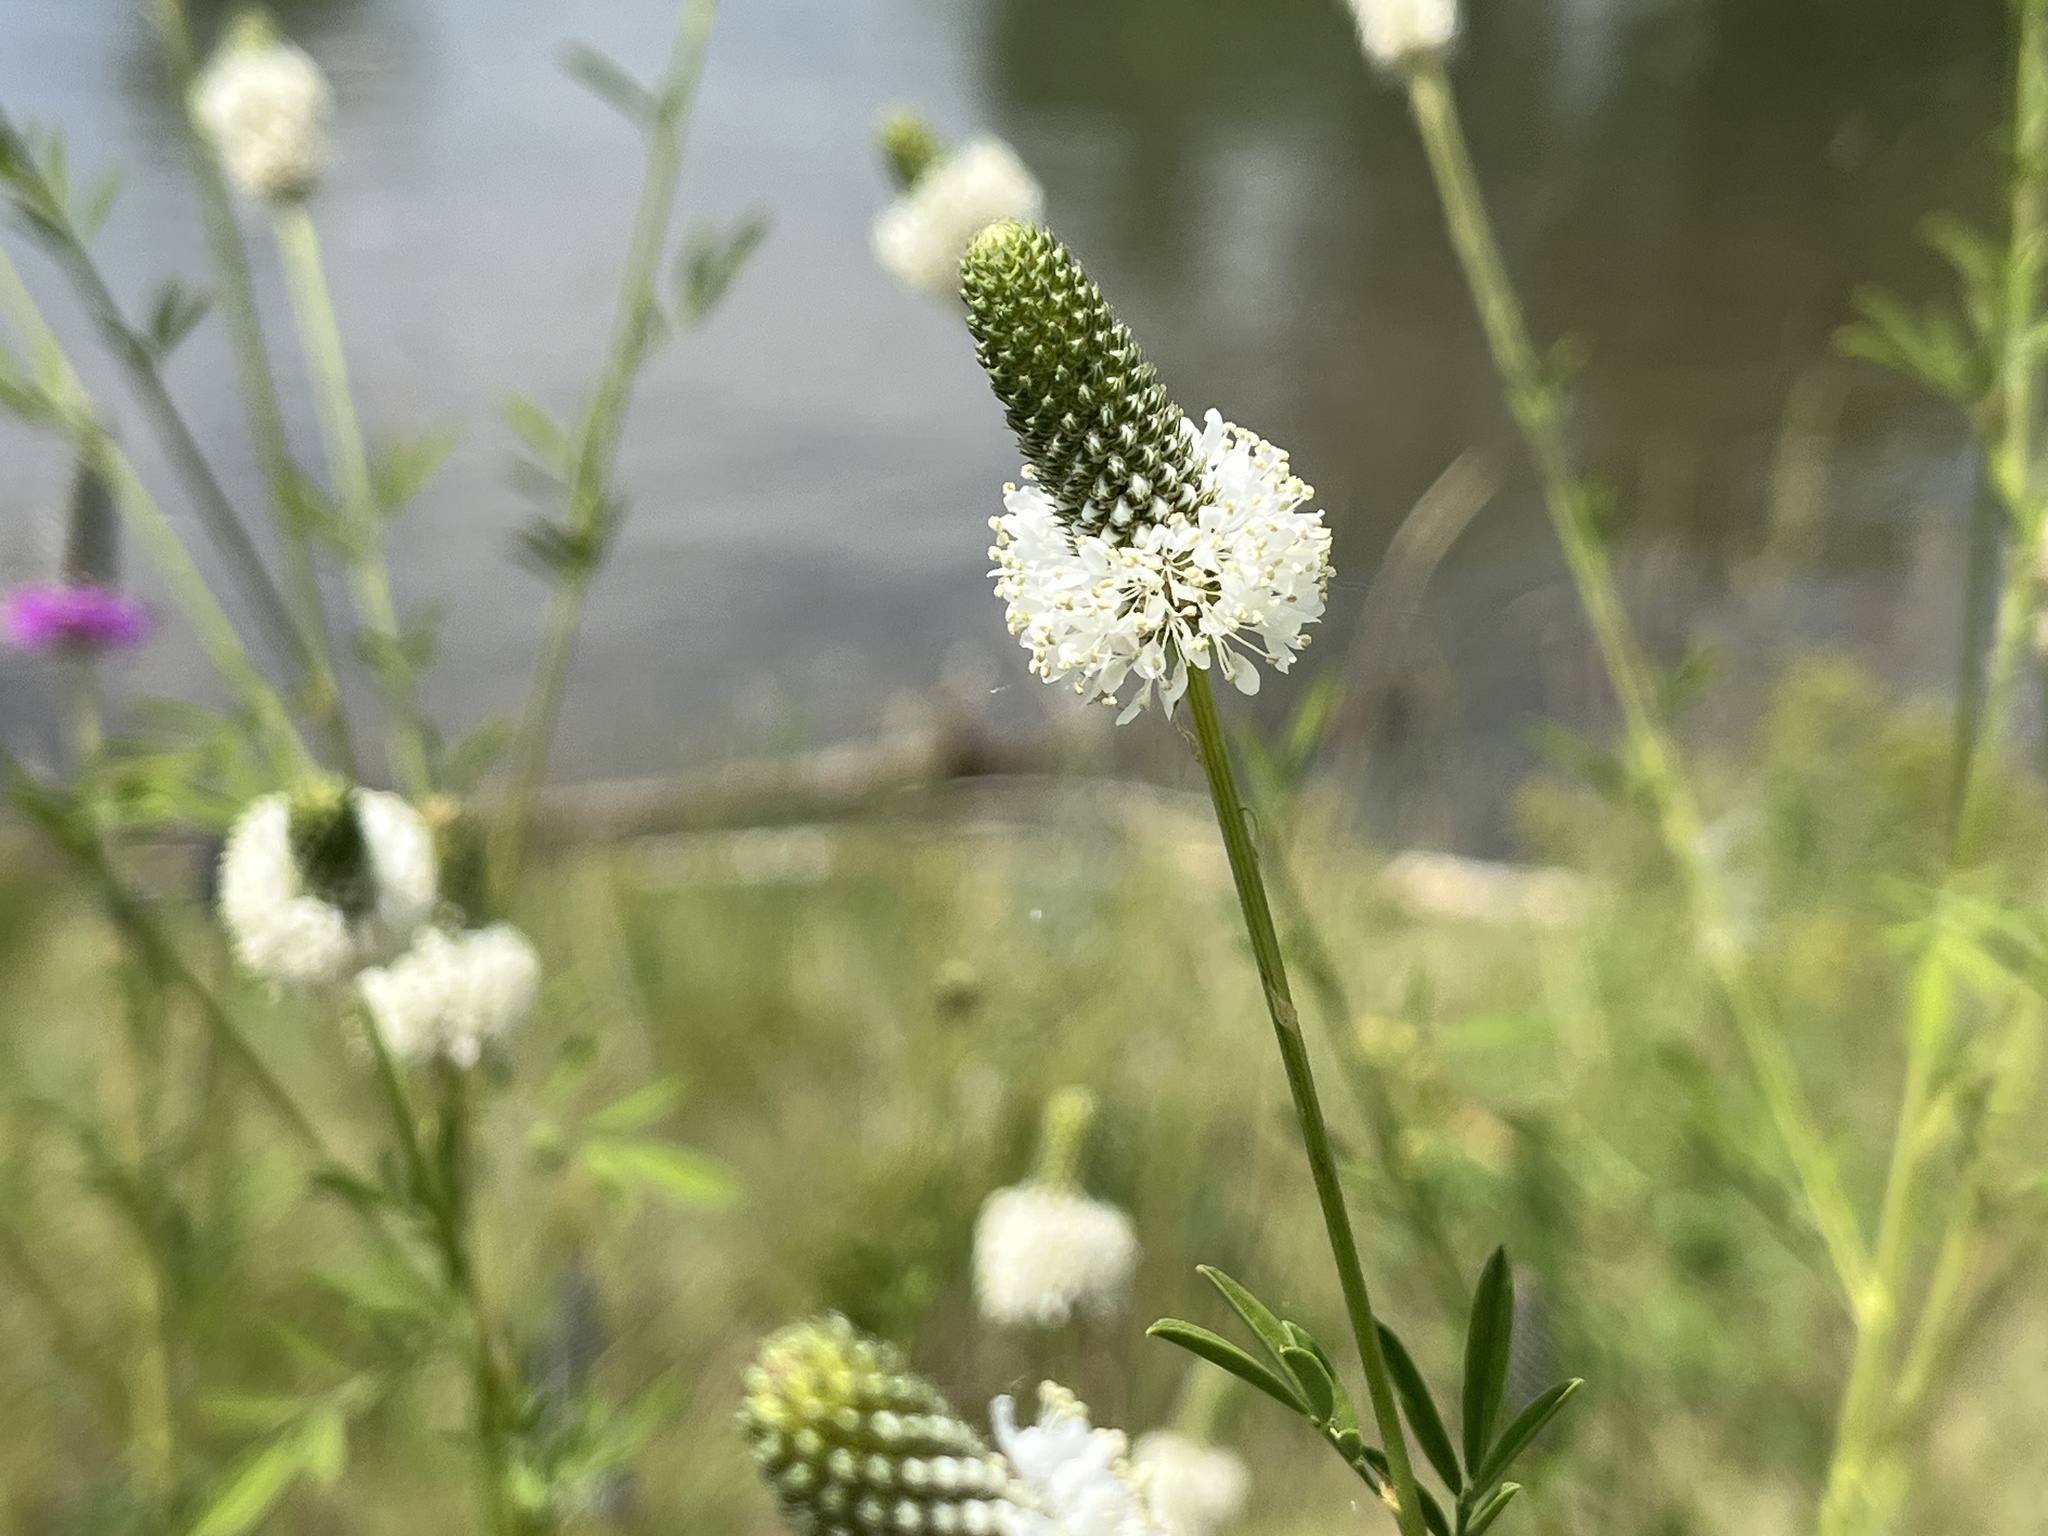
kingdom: Plantae
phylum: Tracheophyta
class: Magnoliopsida
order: Fabales
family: Fabaceae
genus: Dalea
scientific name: Dalea candida
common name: White prairie-clover
